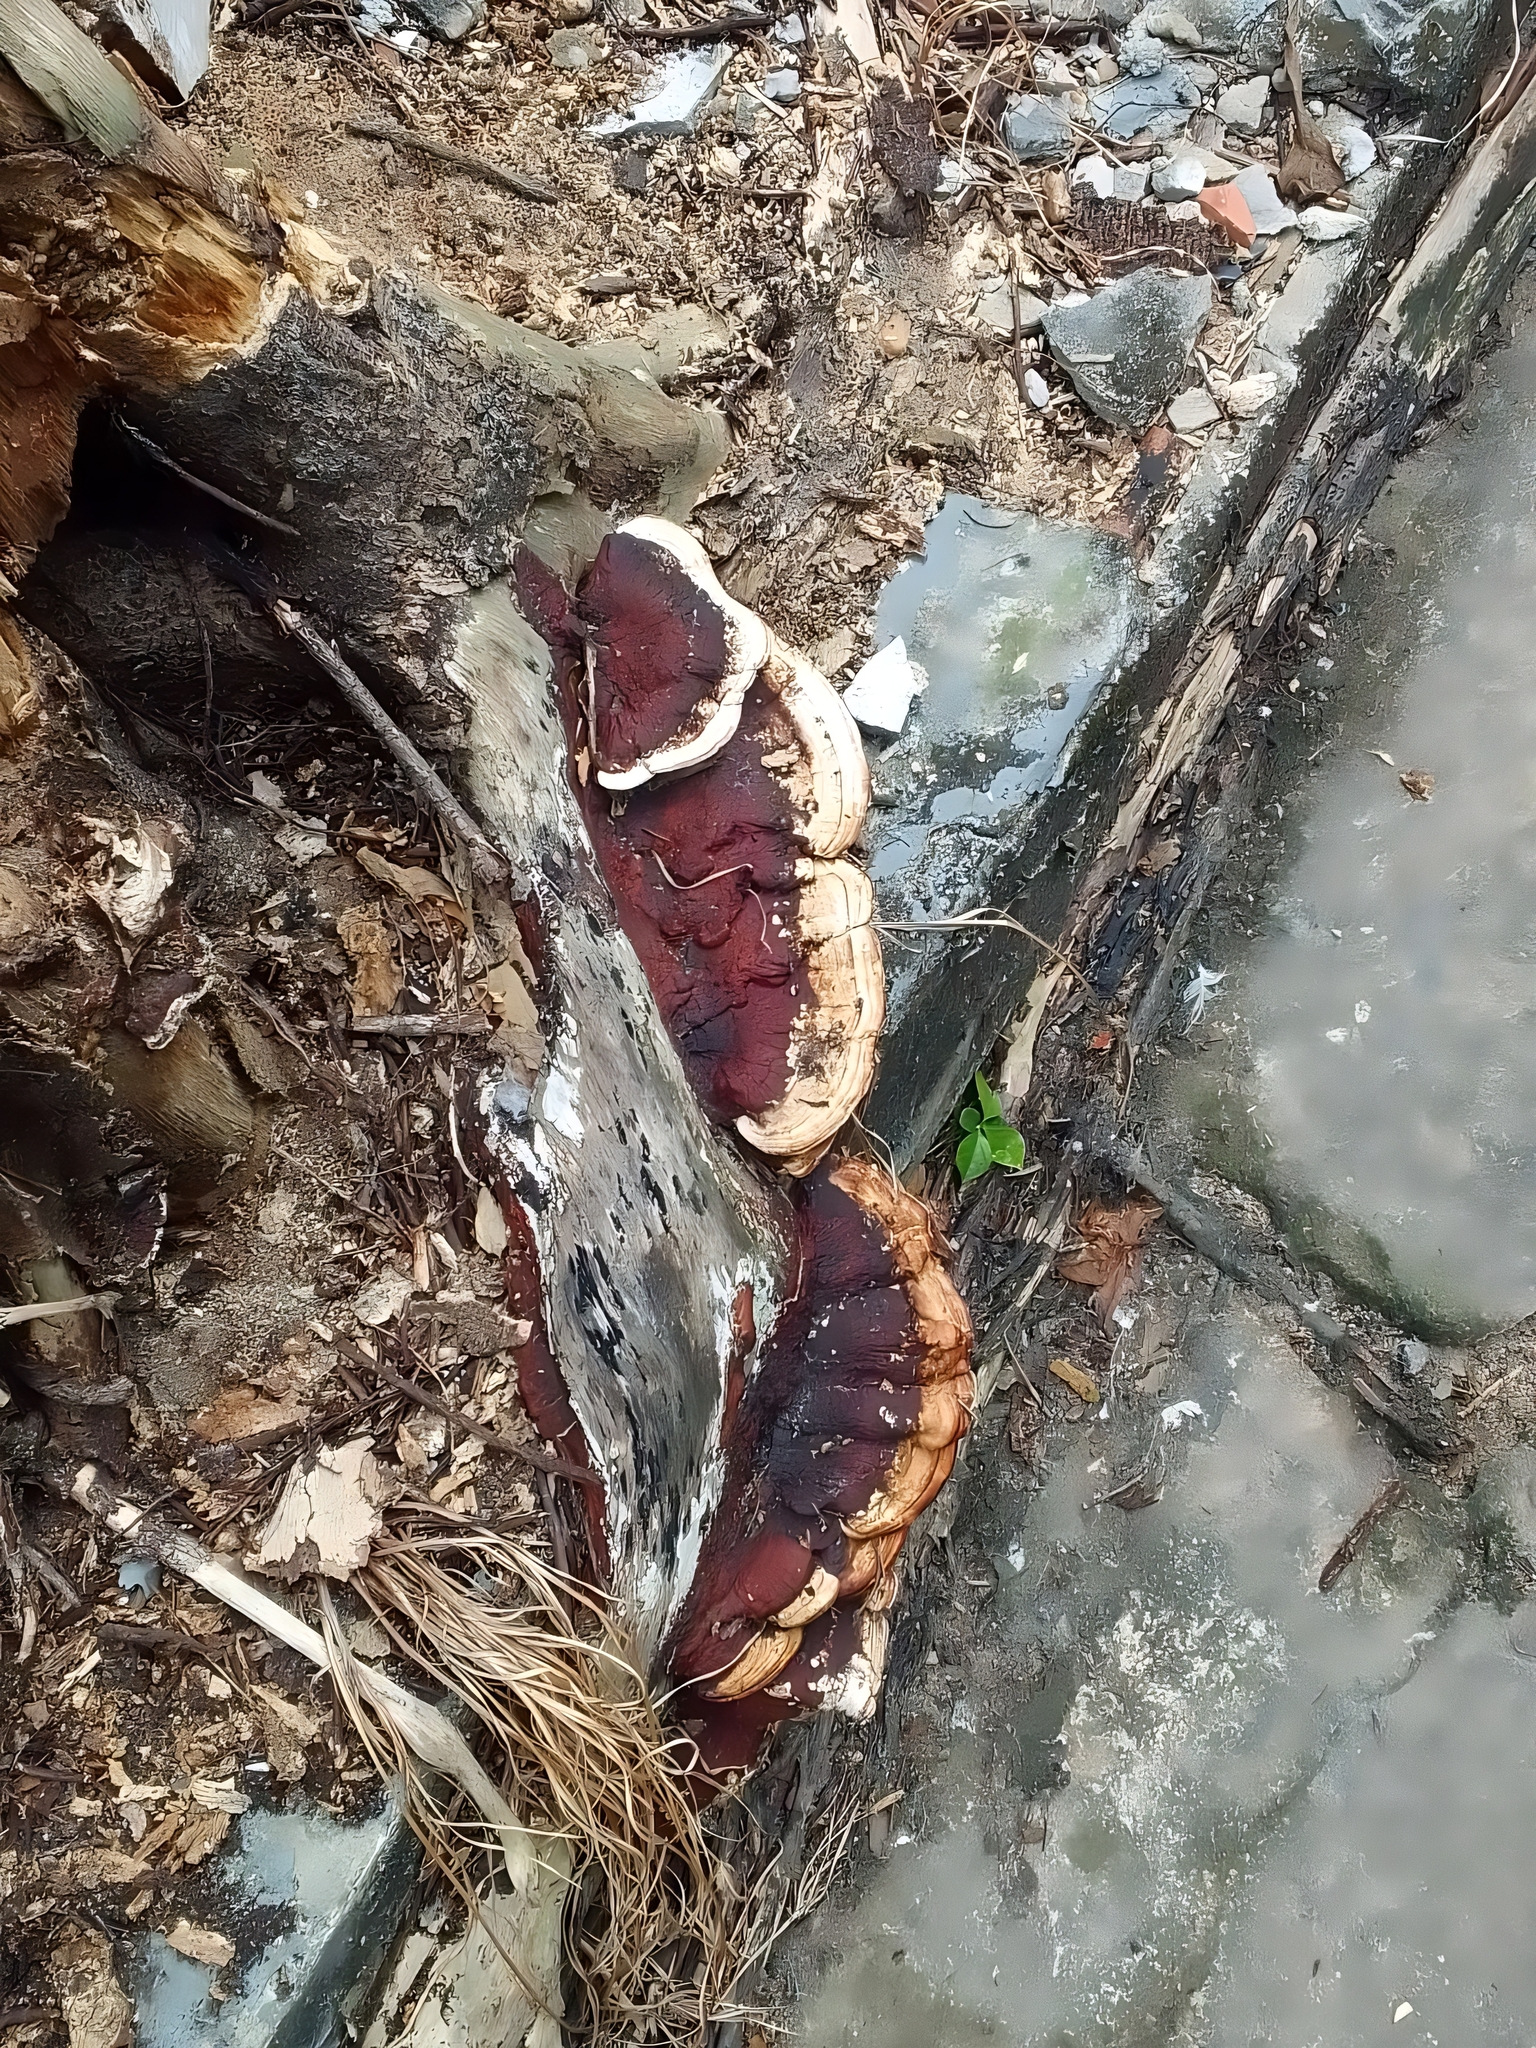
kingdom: Fungi
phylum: Basidiomycota
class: Agaricomycetes
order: Polyporales
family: Polyporaceae
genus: Earliella
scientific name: Earliella scabrosa
